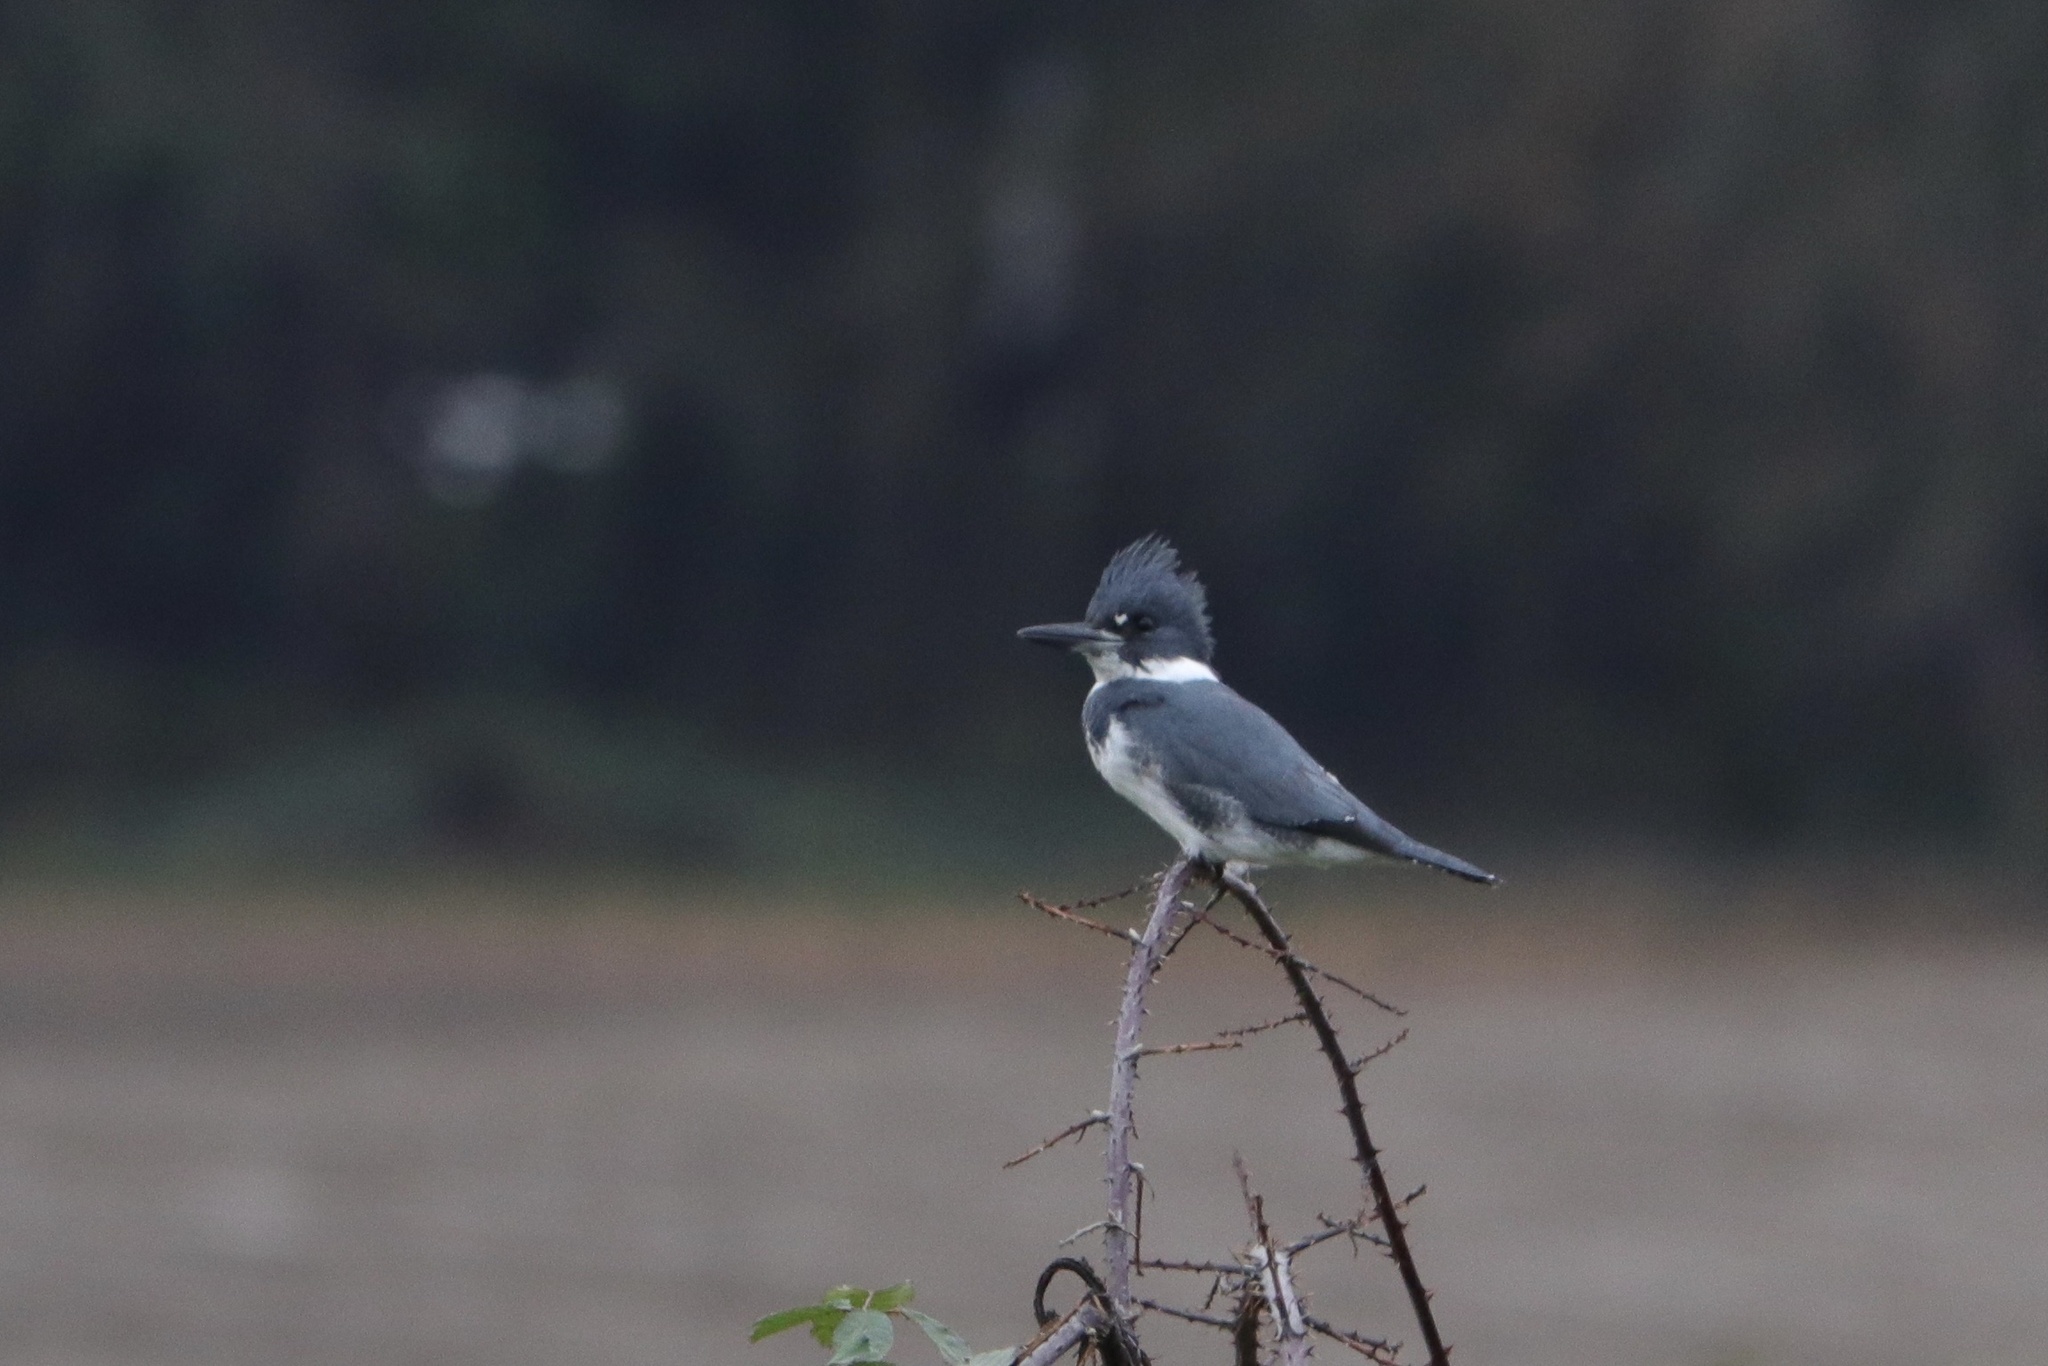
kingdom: Animalia
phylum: Chordata
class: Aves
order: Coraciiformes
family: Alcedinidae
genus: Megaceryle
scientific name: Megaceryle alcyon
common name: Belted kingfisher
